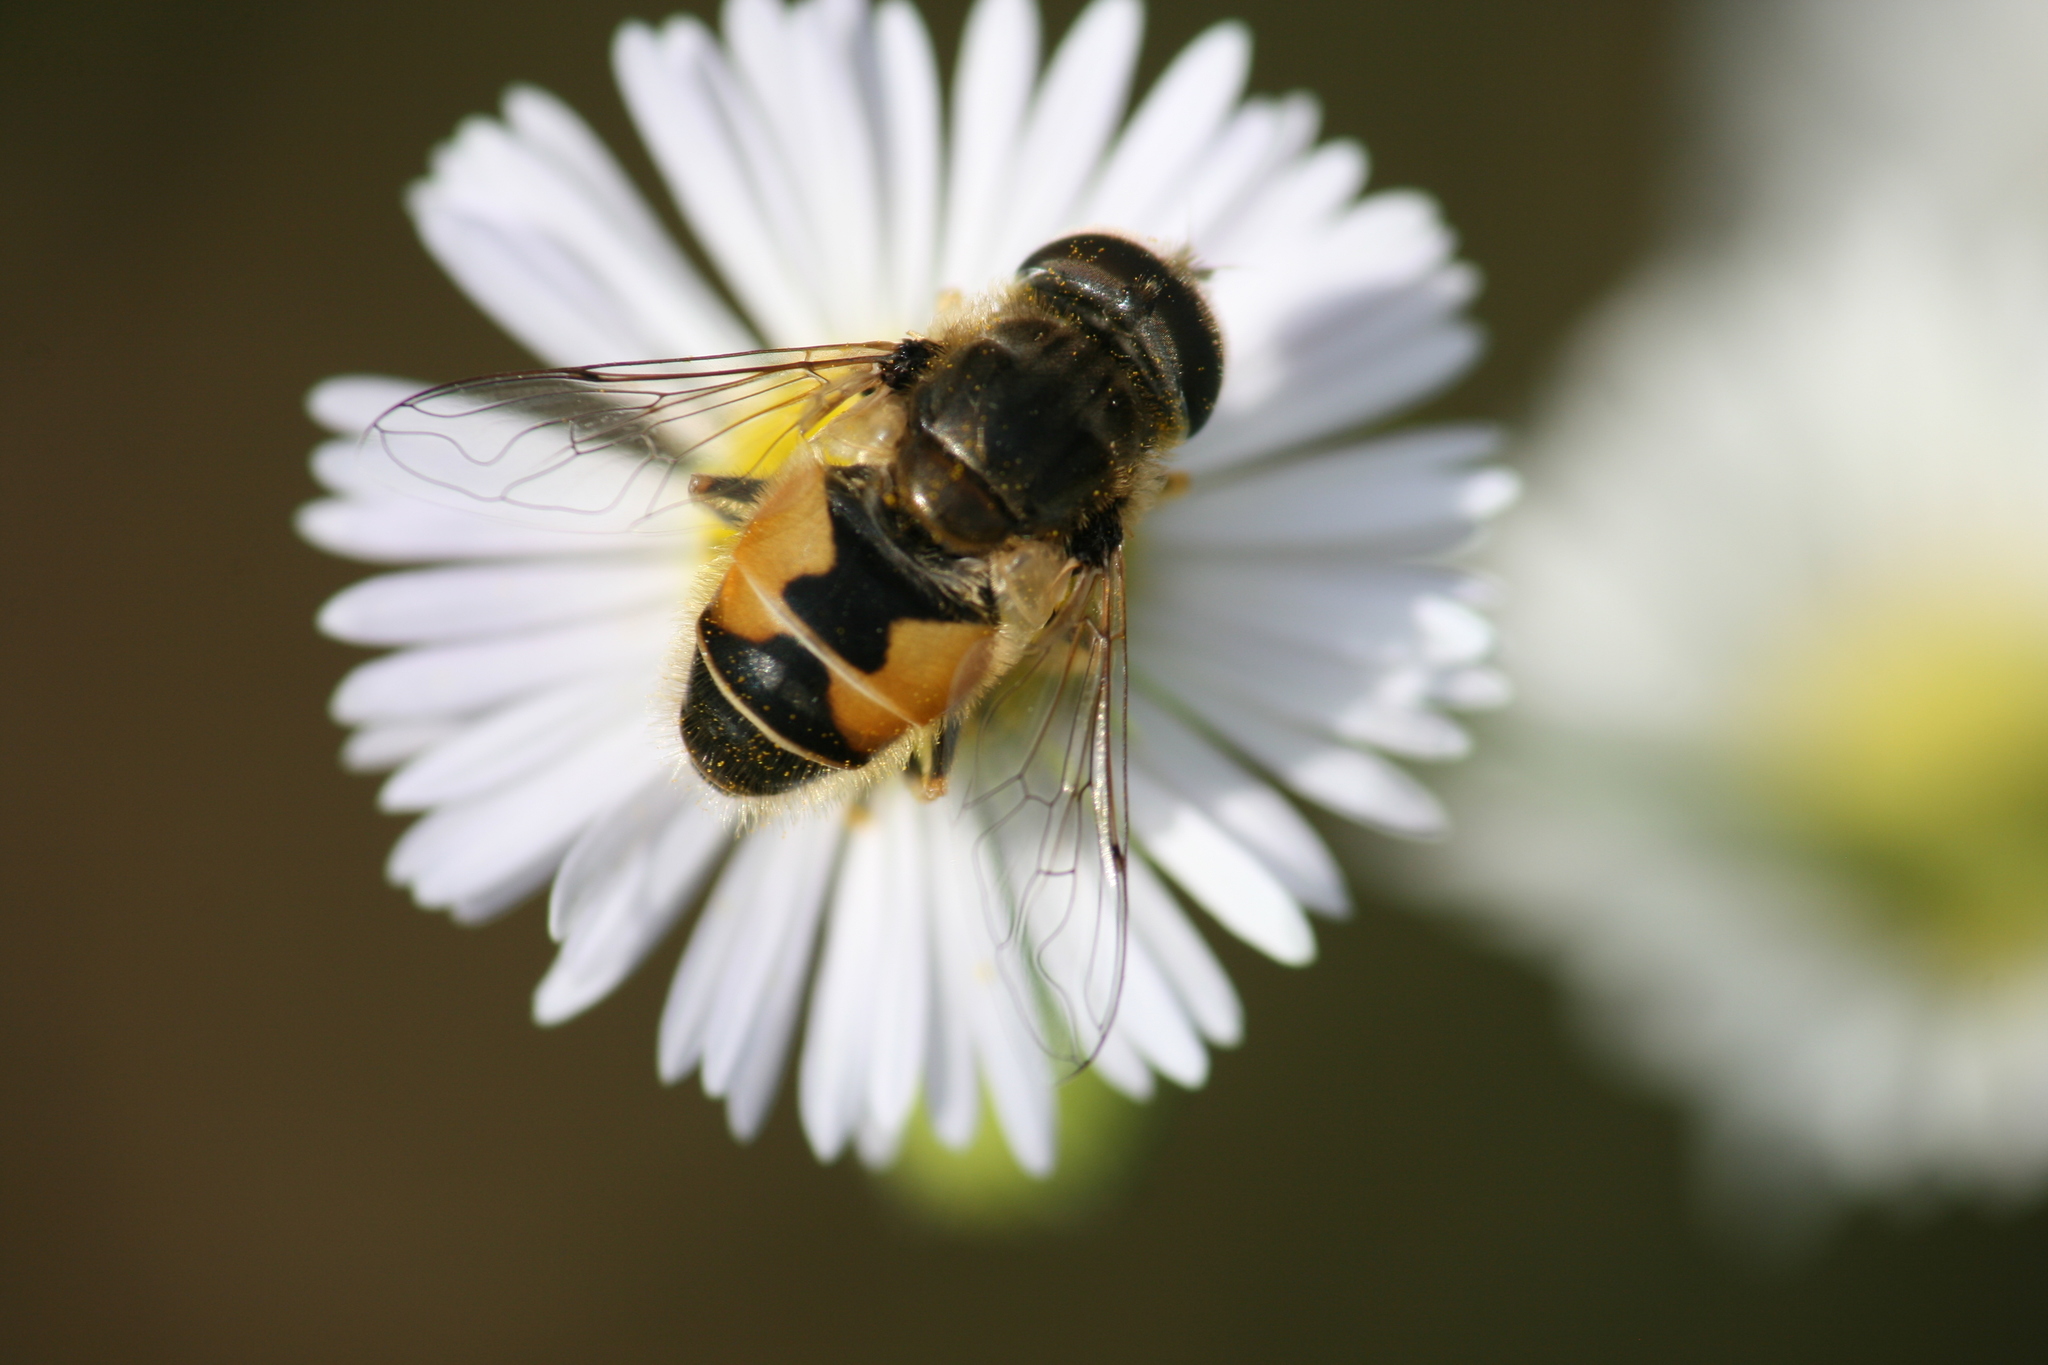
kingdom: Animalia
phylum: Arthropoda
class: Insecta
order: Diptera
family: Syrphidae
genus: Eristalis
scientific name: Eristalis arbustorum
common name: Hover fly
